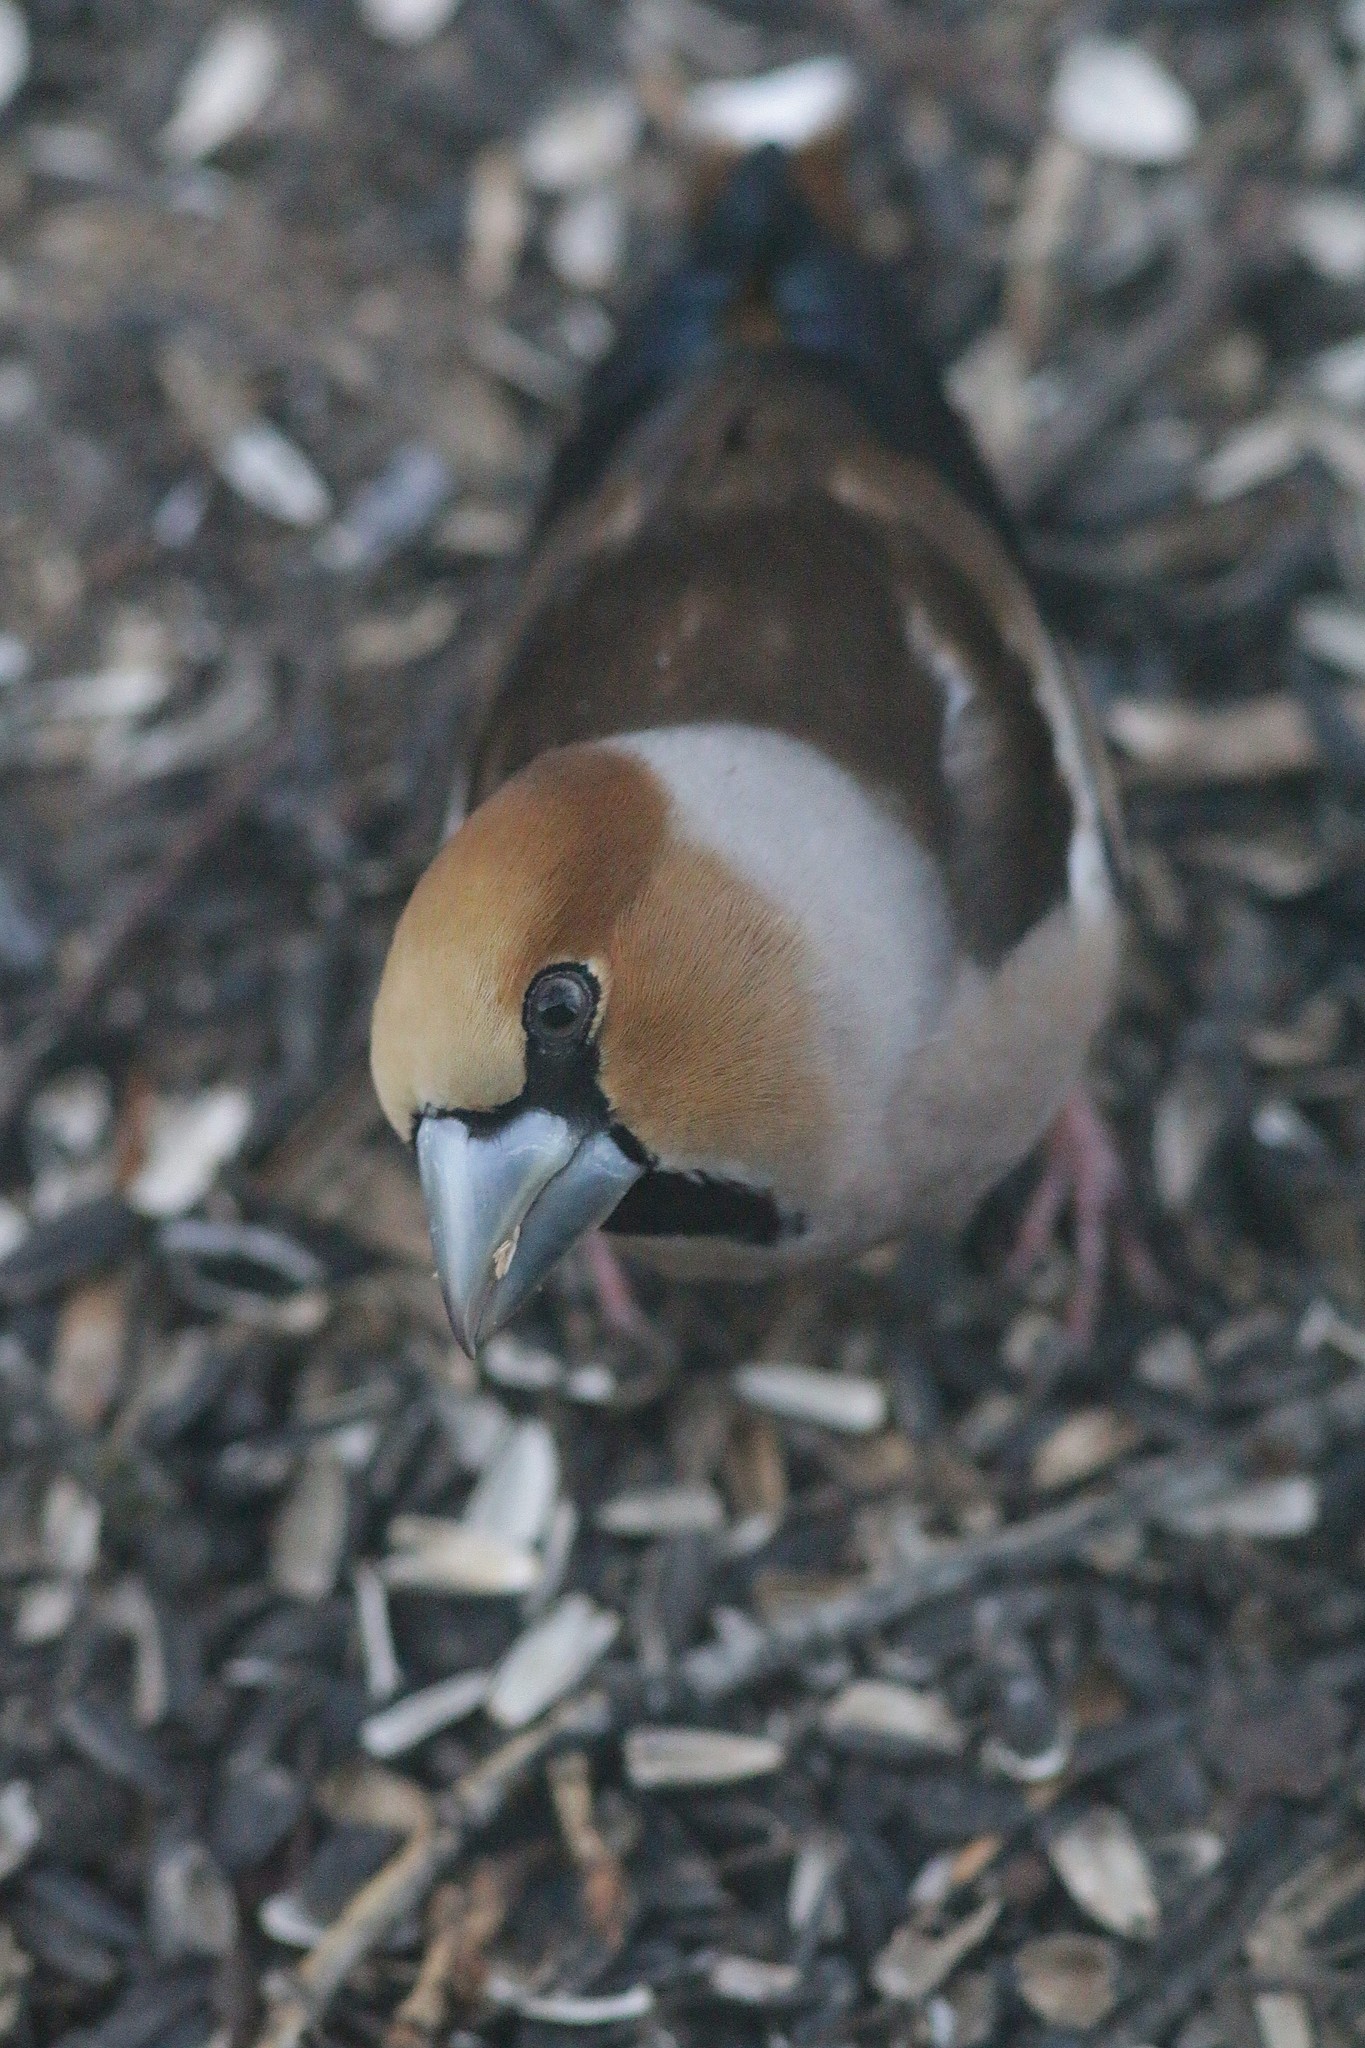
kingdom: Animalia
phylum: Chordata
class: Aves
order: Passeriformes
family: Fringillidae
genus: Coccothraustes
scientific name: Coccothraustes coccothraustes
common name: Hawfinch
